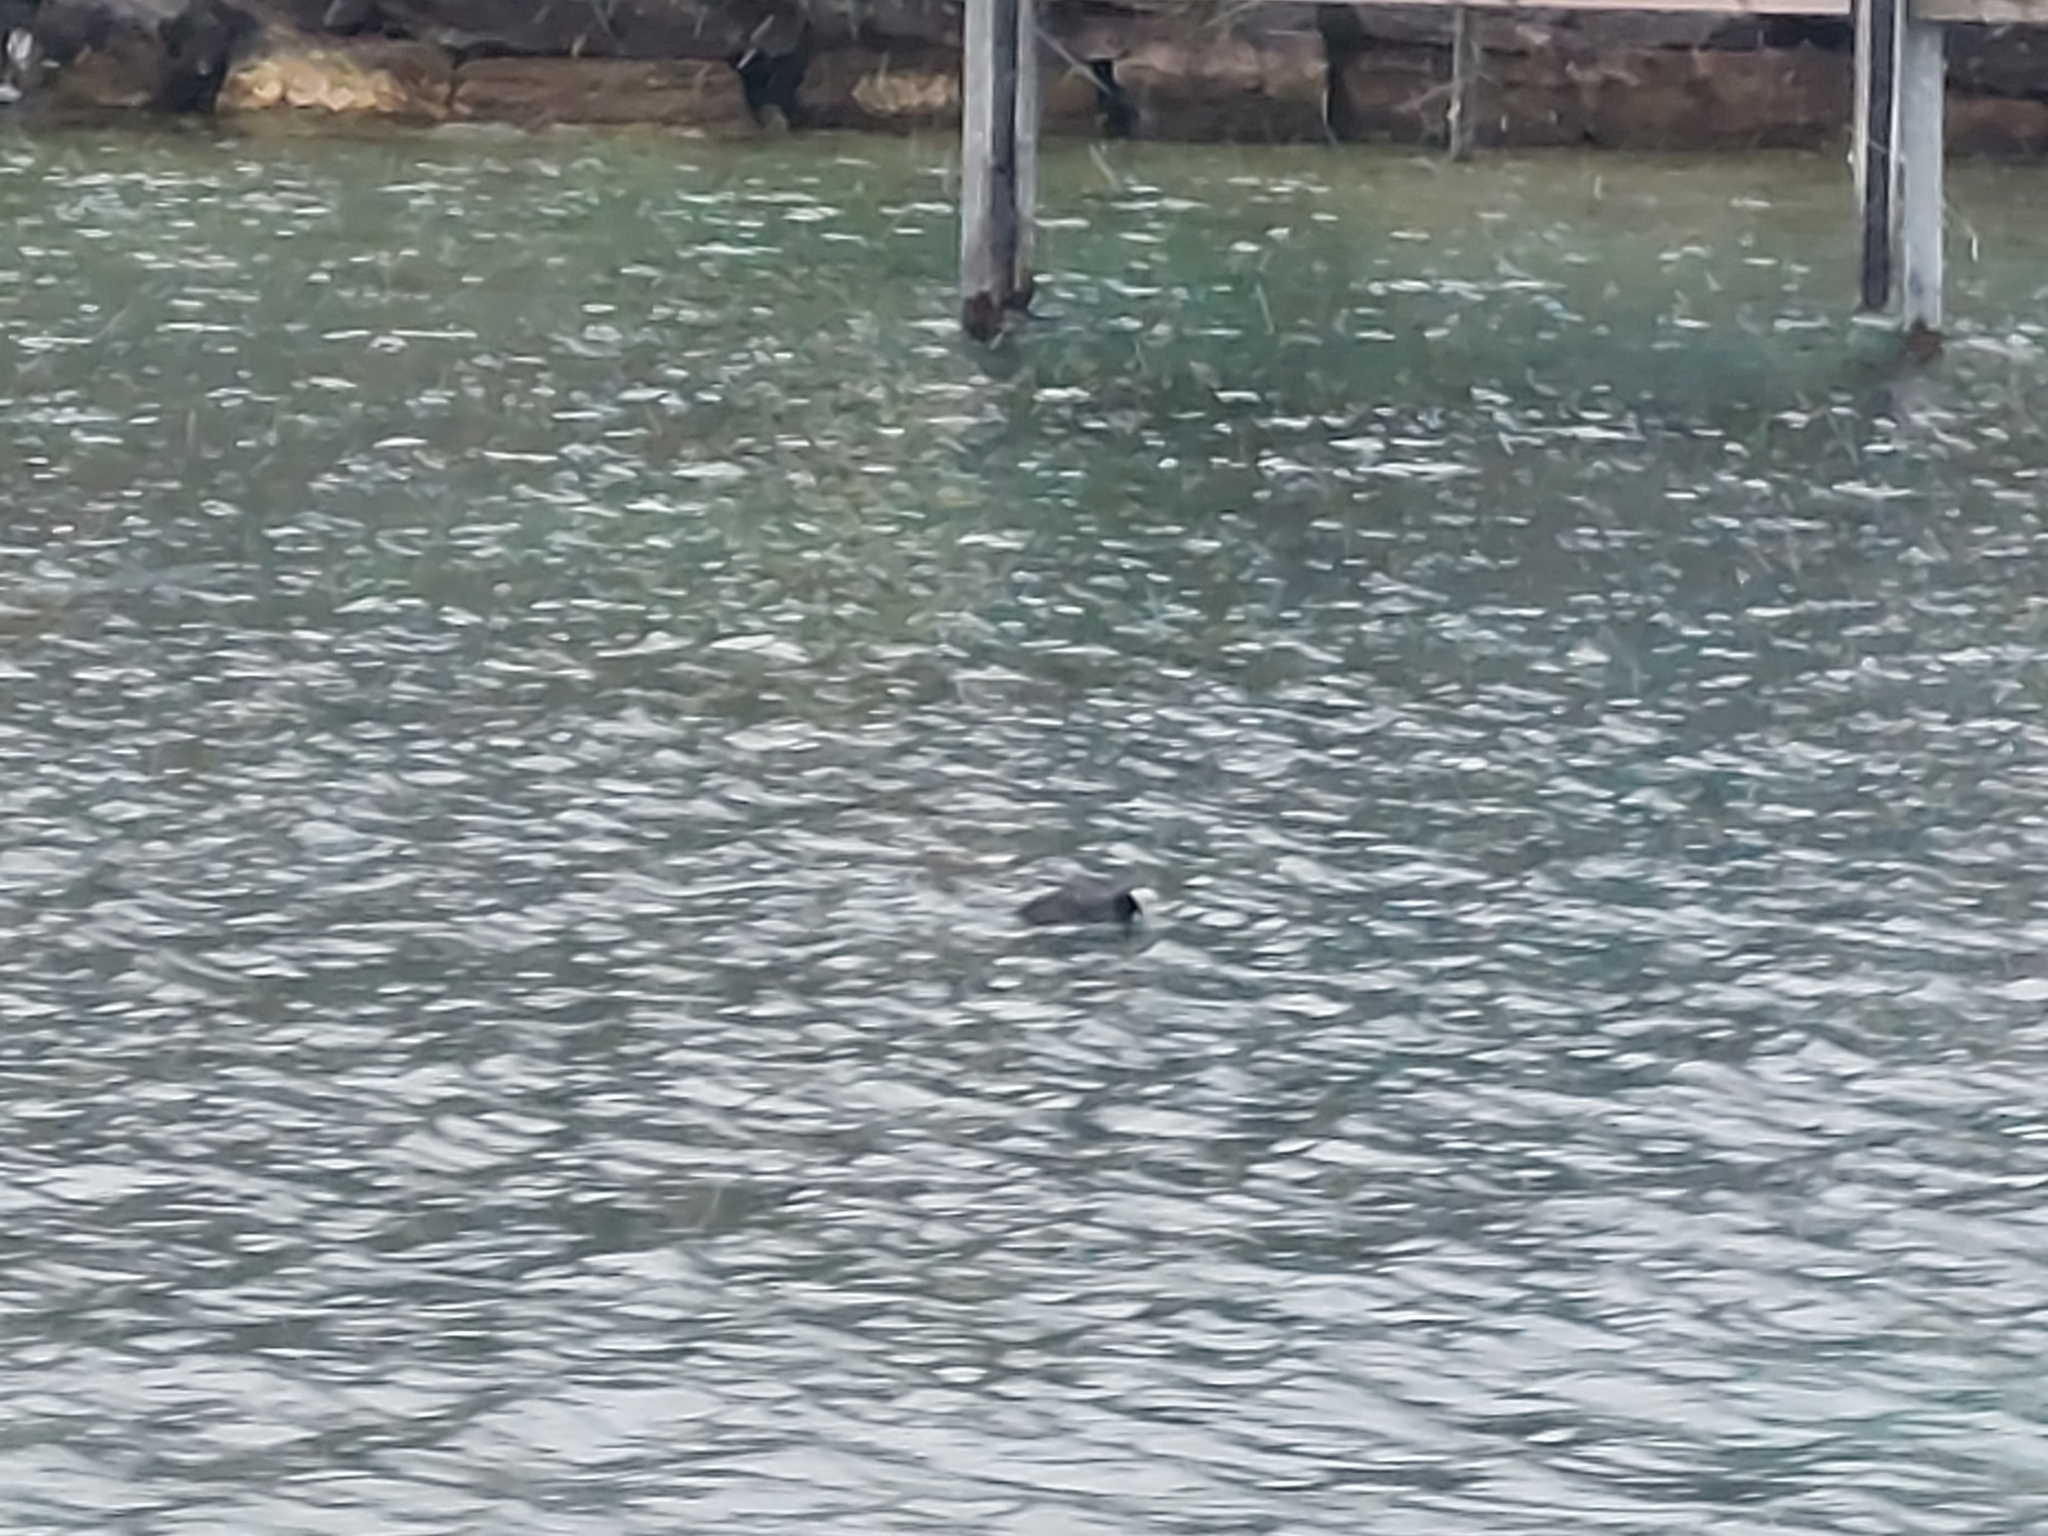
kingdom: Animalia
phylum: Chordata
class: Aves
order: Gruiformes
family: Rallidae
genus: Fulica
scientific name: Fulica atra
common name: Eurasian coot
